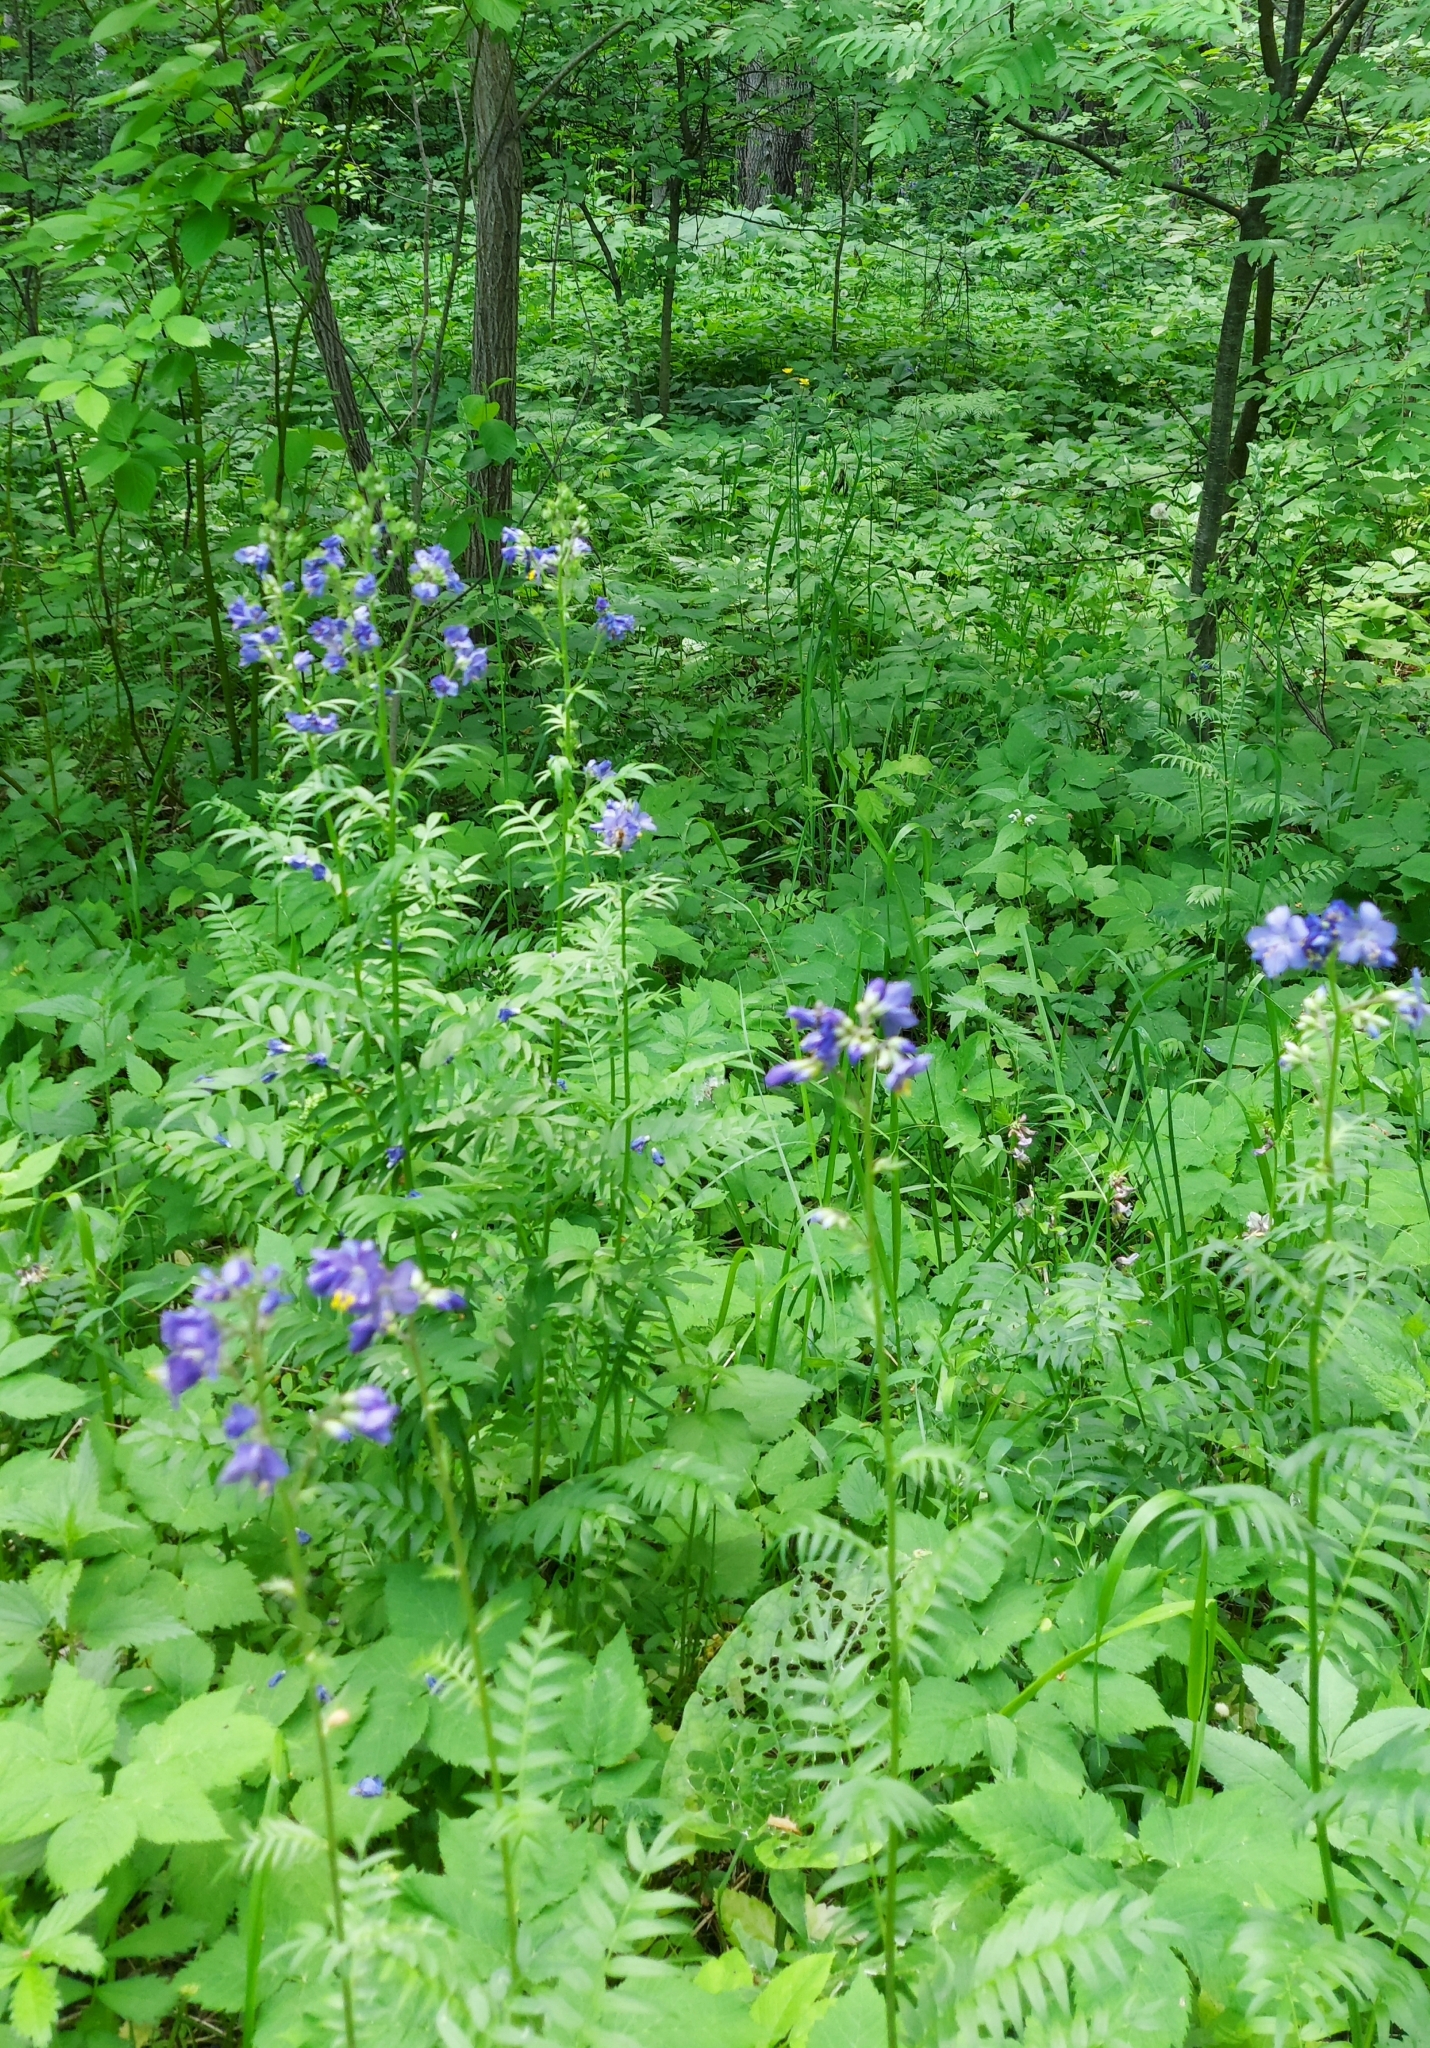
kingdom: Plantae
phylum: Tracheophyta
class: Magnoliopsida
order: Ericales
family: Polemoniaceae
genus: Polemonium
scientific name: Polemonium caeruleum
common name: Jacob's-ladder
